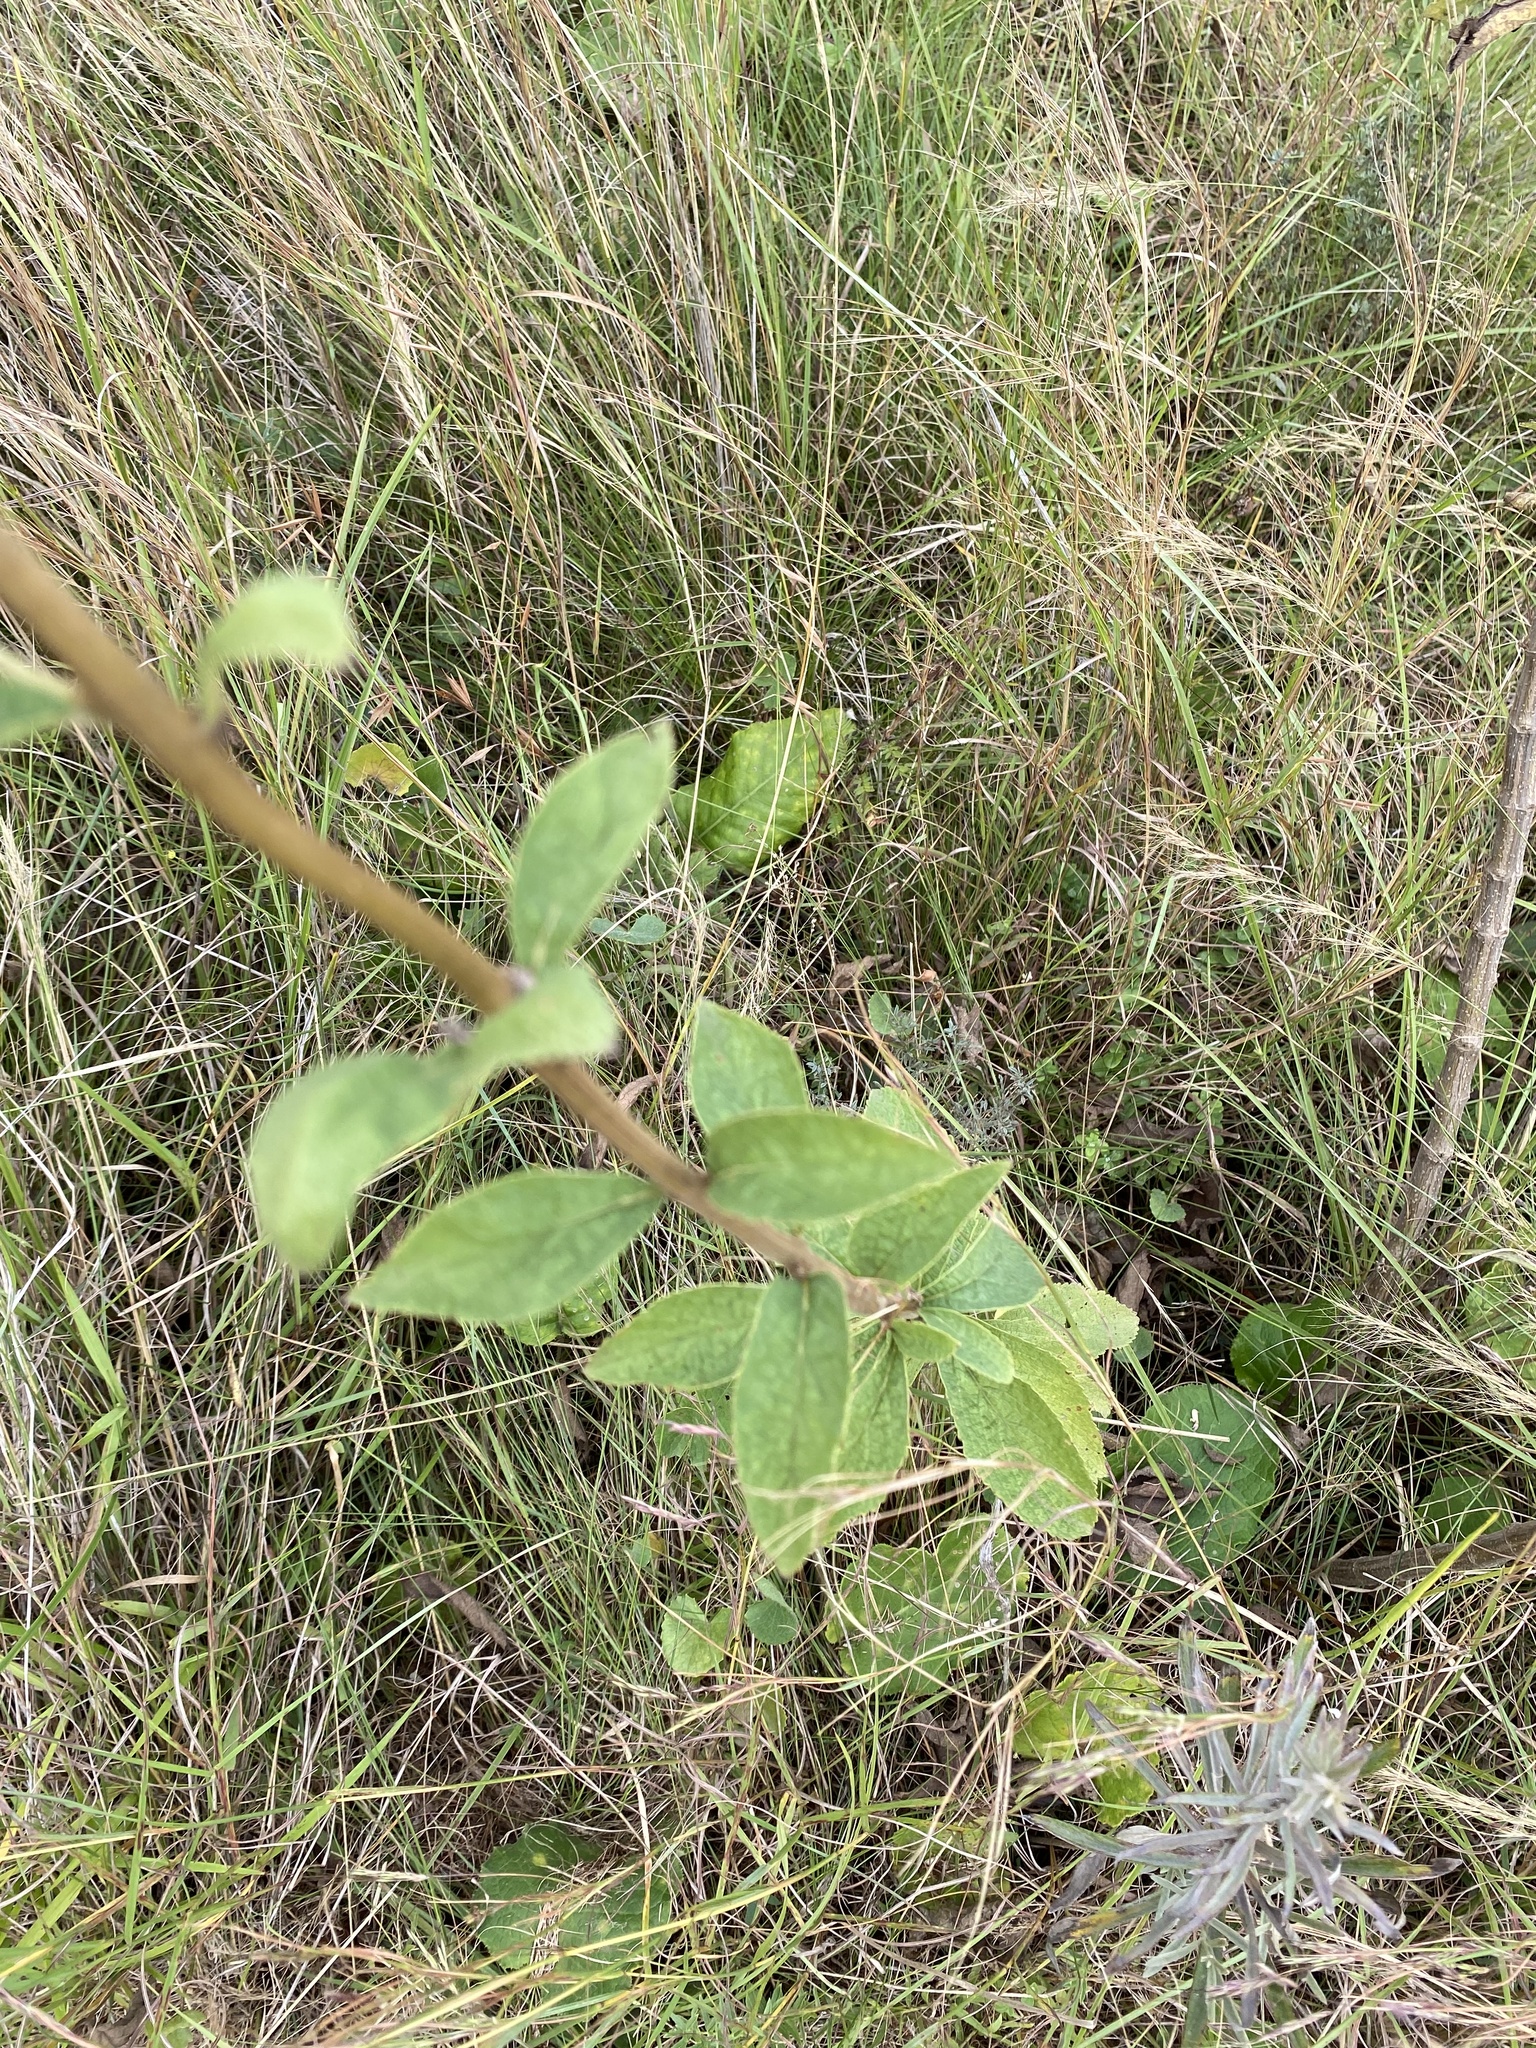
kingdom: Plantae
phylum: Tracheophyta
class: Magnoliopsida
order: Lamiales
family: Lamiaceae
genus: Coleus
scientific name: Coleus calycinus
